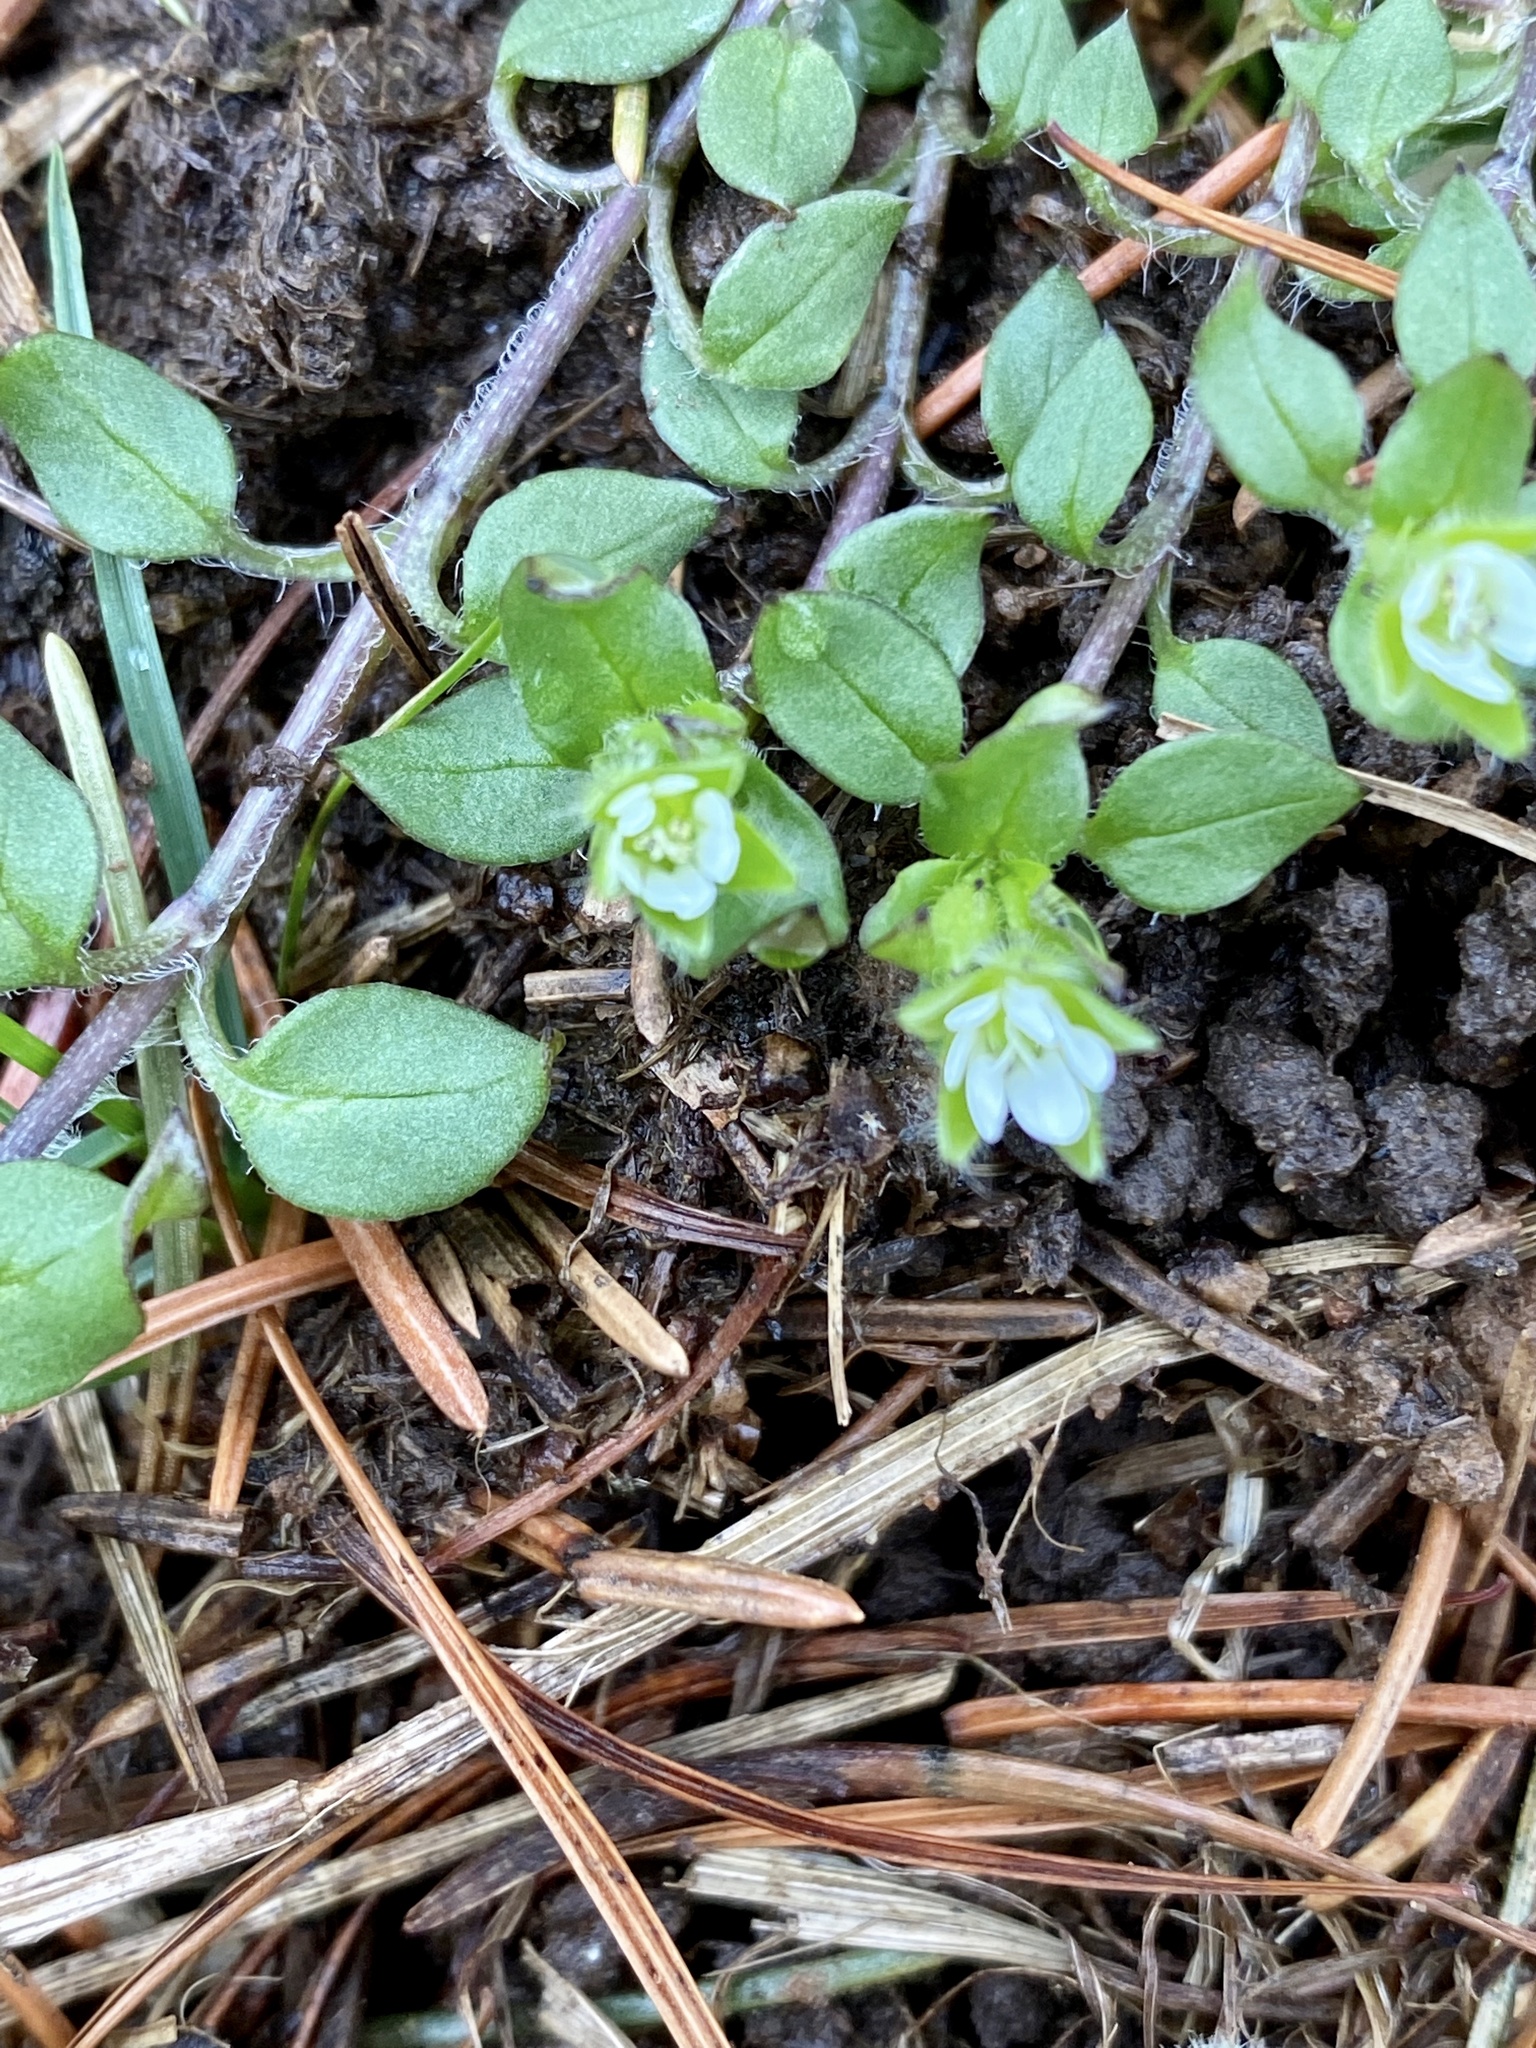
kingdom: Plantae
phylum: Tracheophyta
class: Magnoliopsida
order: Caryophyllales
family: Caryophyllaceae
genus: Stellaria
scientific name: Stellaria media
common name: Common chickweed
